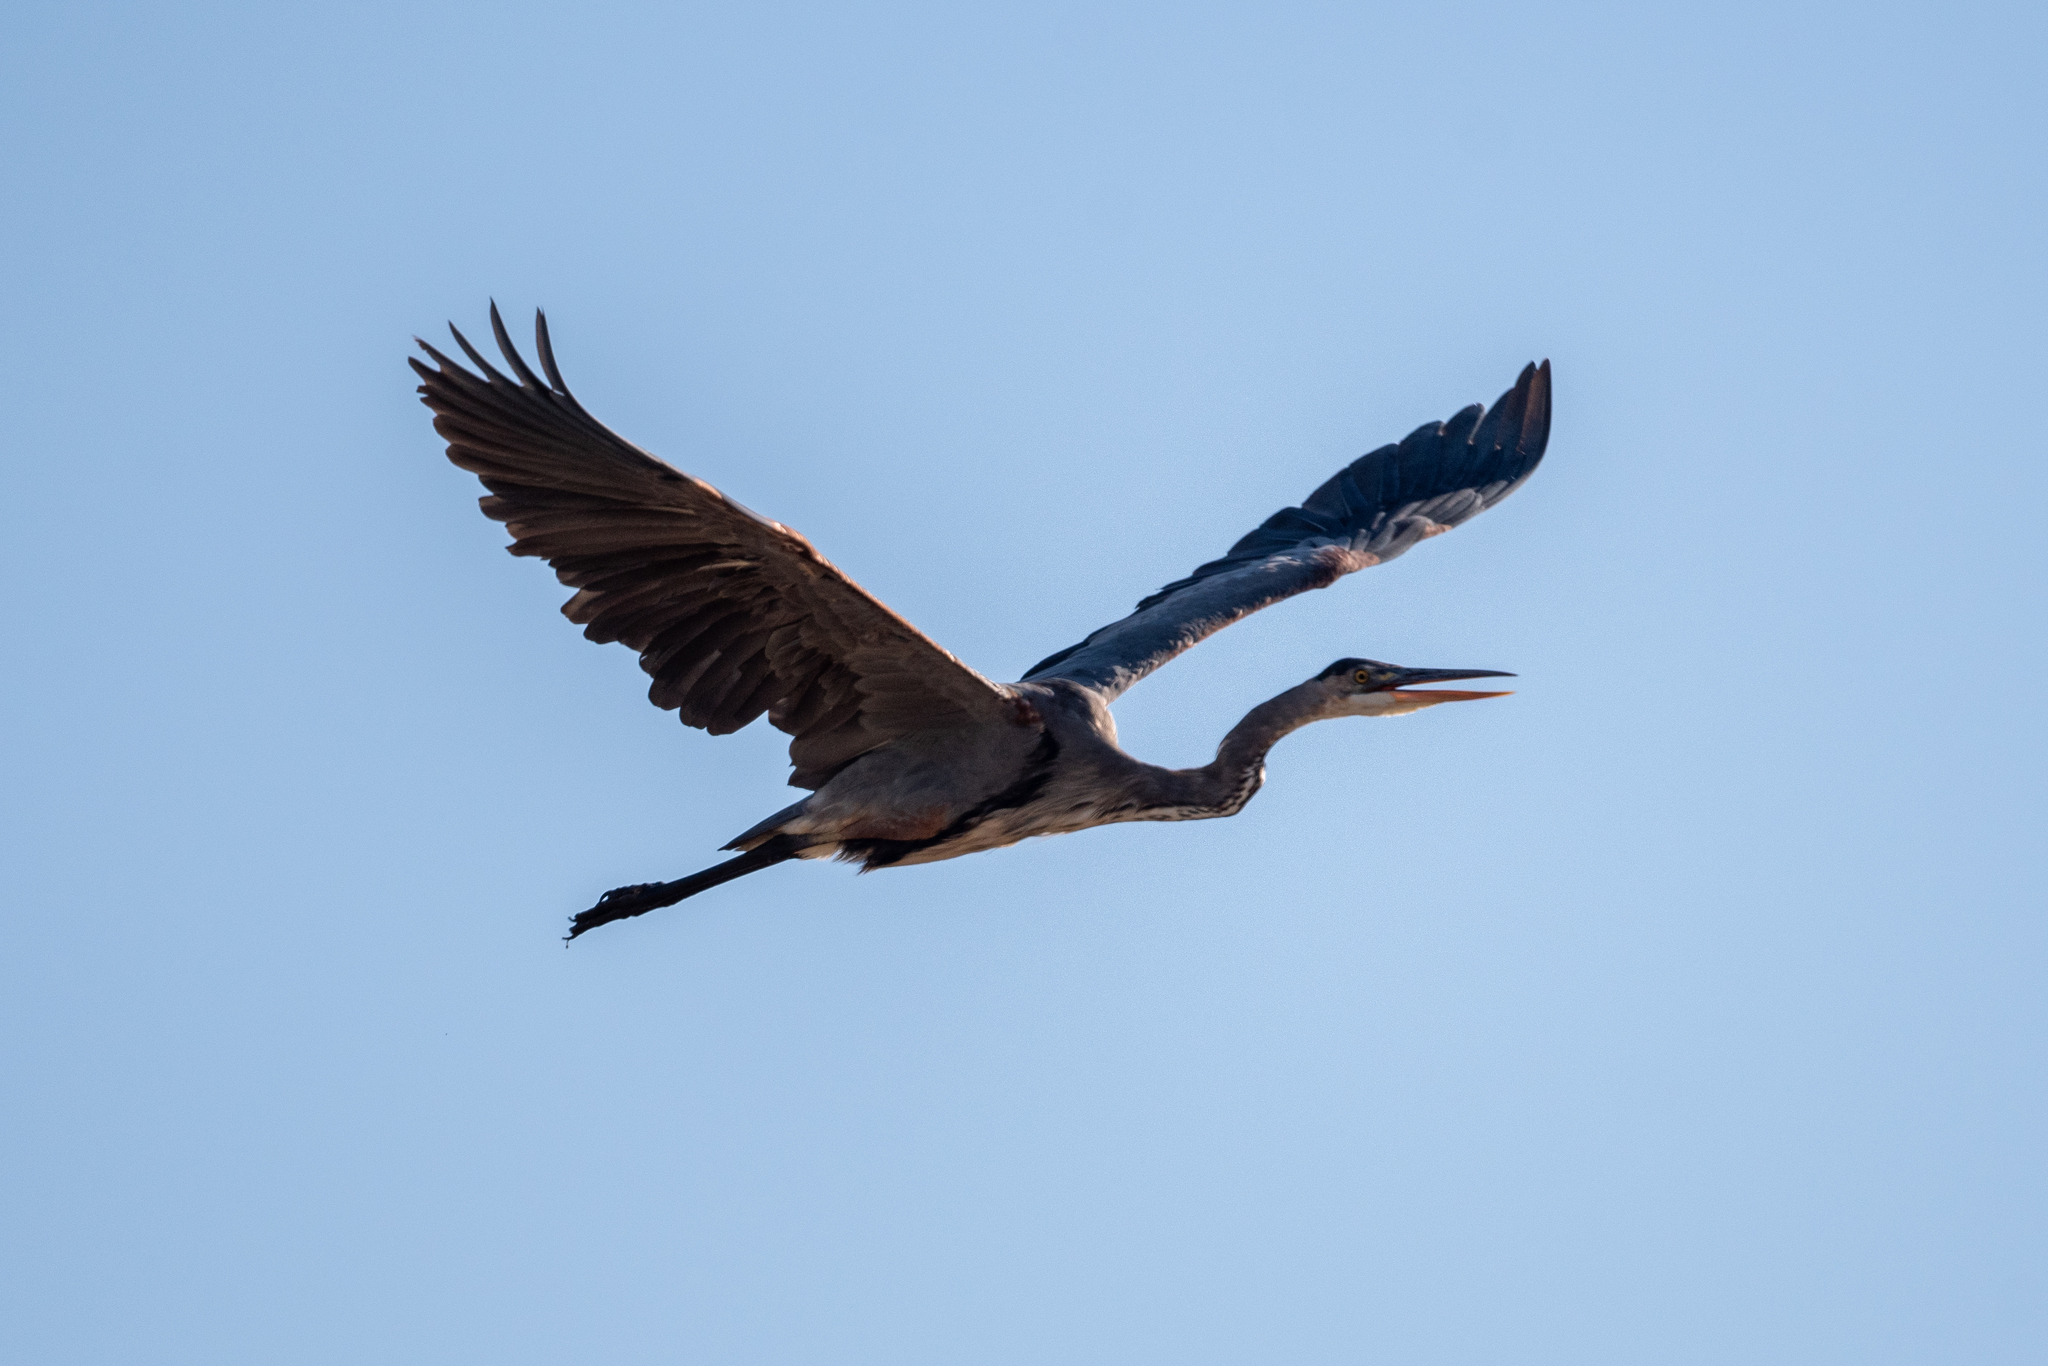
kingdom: Animalia
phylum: Chordata
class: Aves
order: Pelecaniformes
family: Ardeidae
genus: Ardea
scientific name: Ardea herodias
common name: Great blue heron
